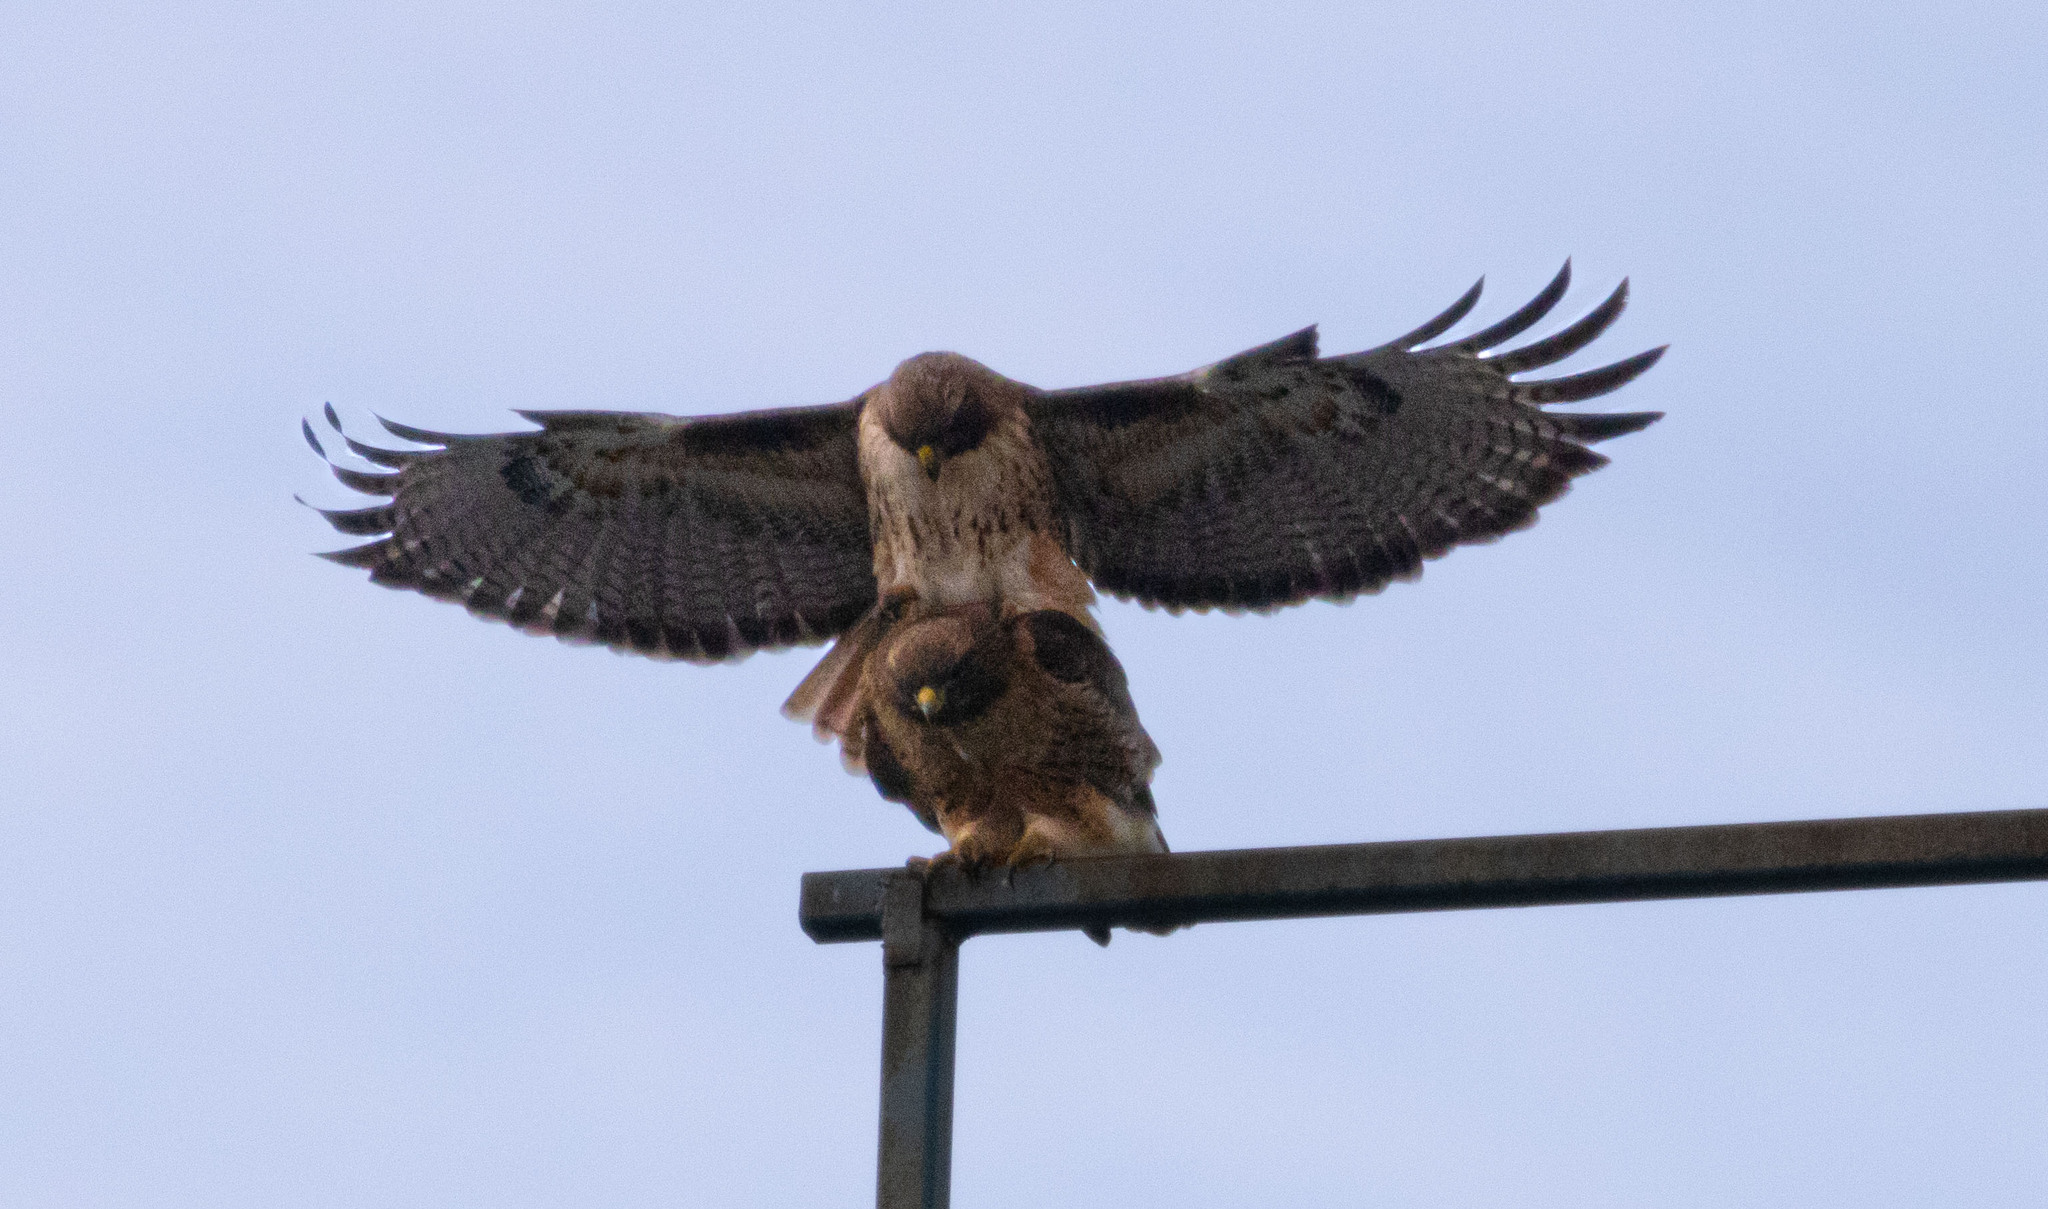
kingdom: Animalia
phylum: Chordata
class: Aves
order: Accipitriformes
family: Accipitridae
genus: Buteo
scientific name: Buteo jamaicensis
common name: Red-tailed hawk
